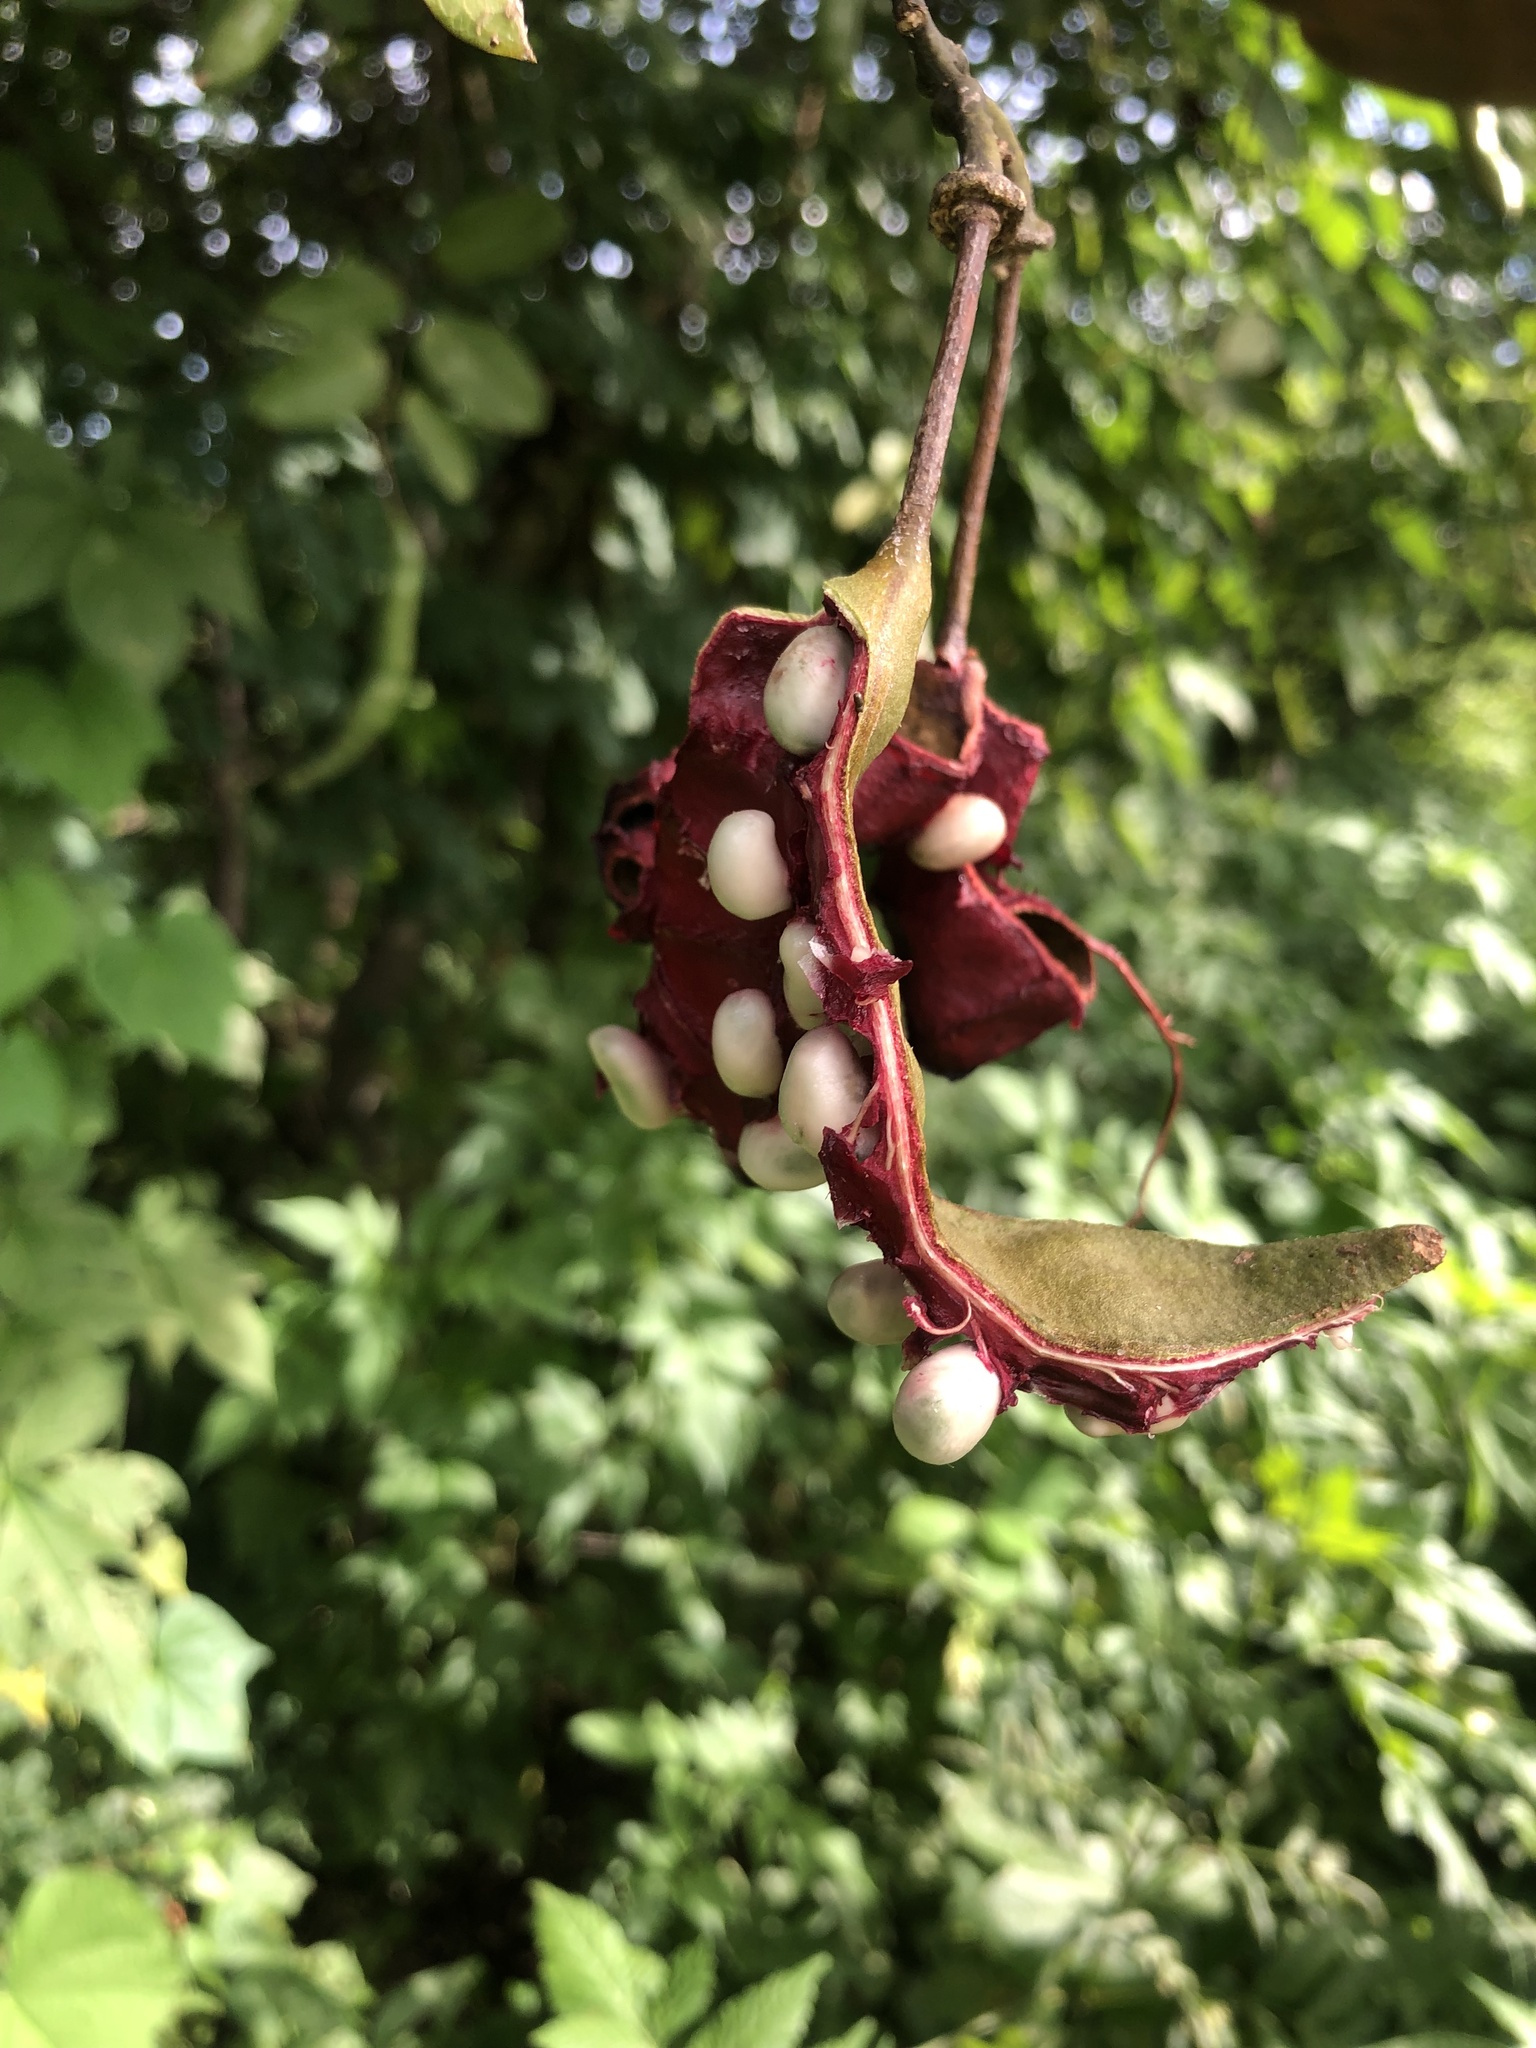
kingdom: Plantae
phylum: Tracheophyta
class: Magnoliopsida
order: Brassicales
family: Capparaceae
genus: Cynophalla
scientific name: Cynophalla hastata
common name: Broadleaf cape
